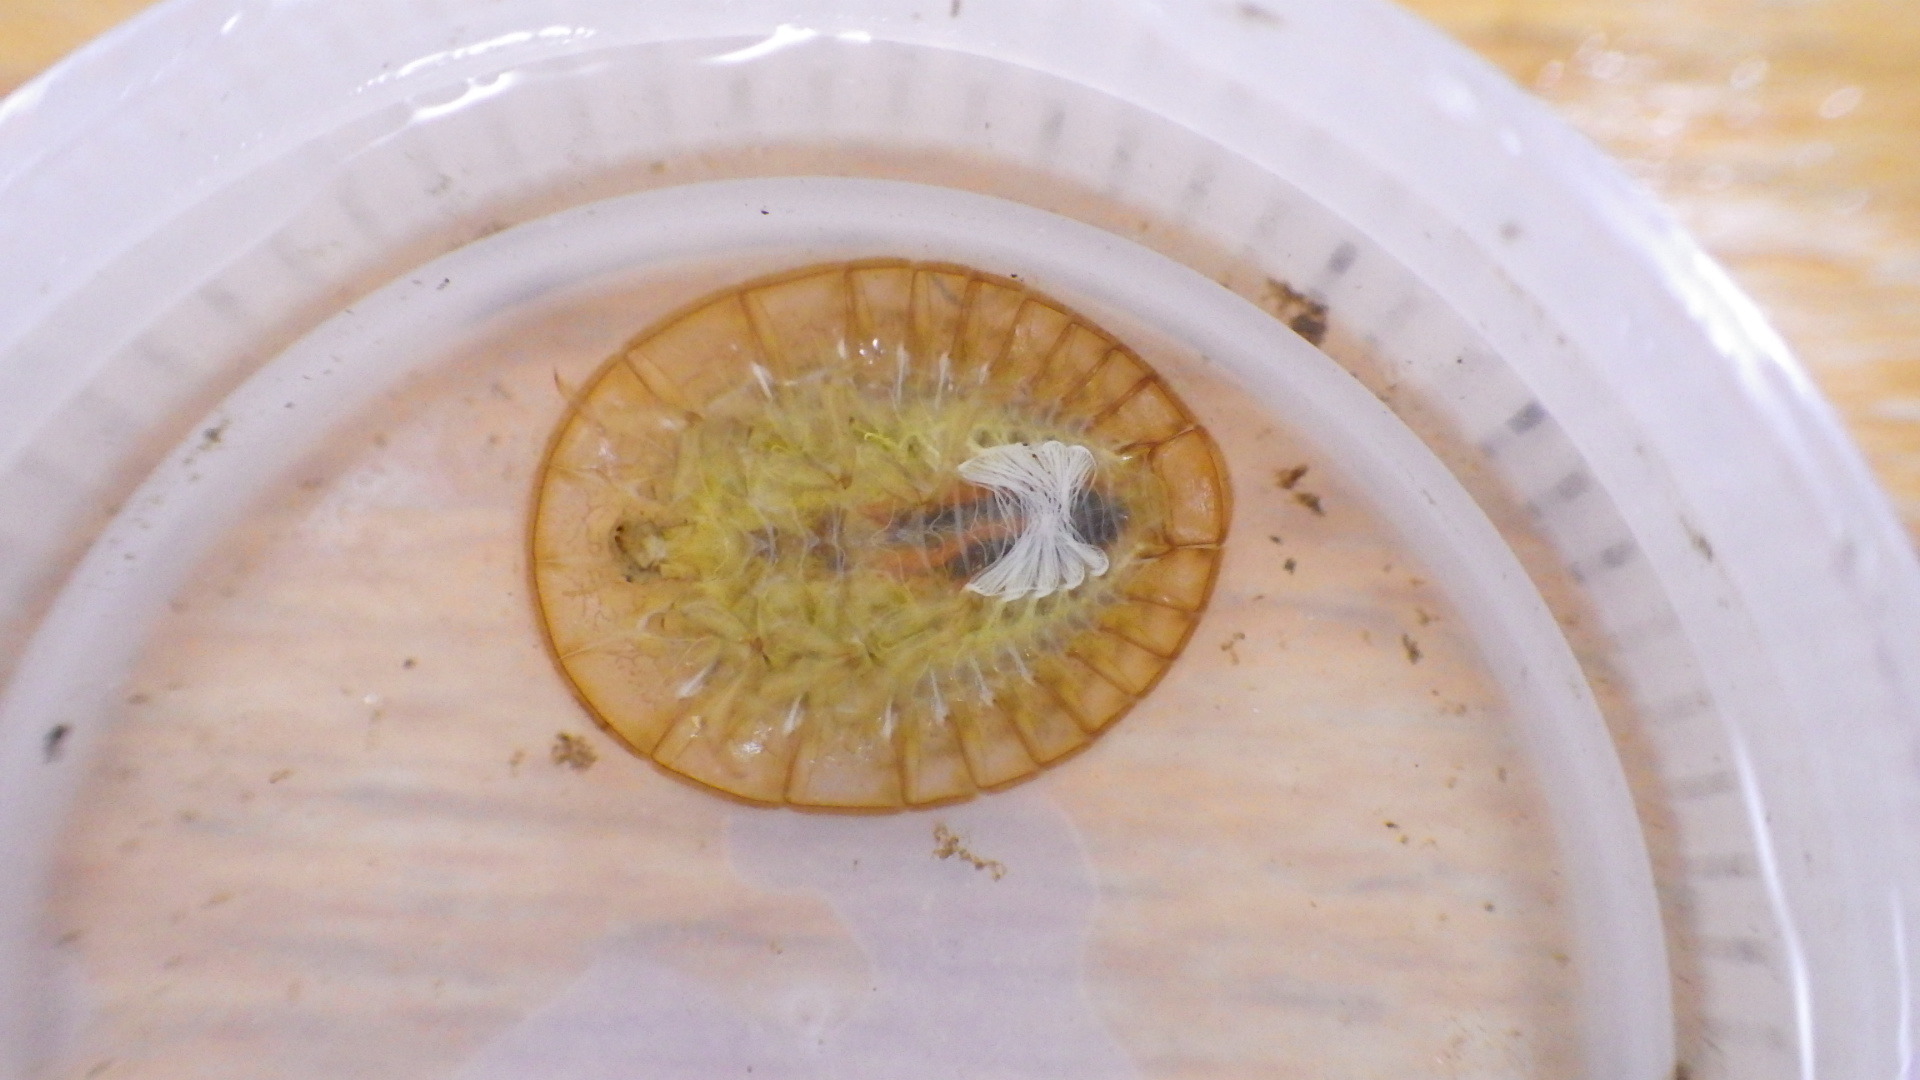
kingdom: Animalia
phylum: Arthropoda
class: Insecta
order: Coleoptera
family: Psephenidae
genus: Psephenus
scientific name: Psephenus herricki
